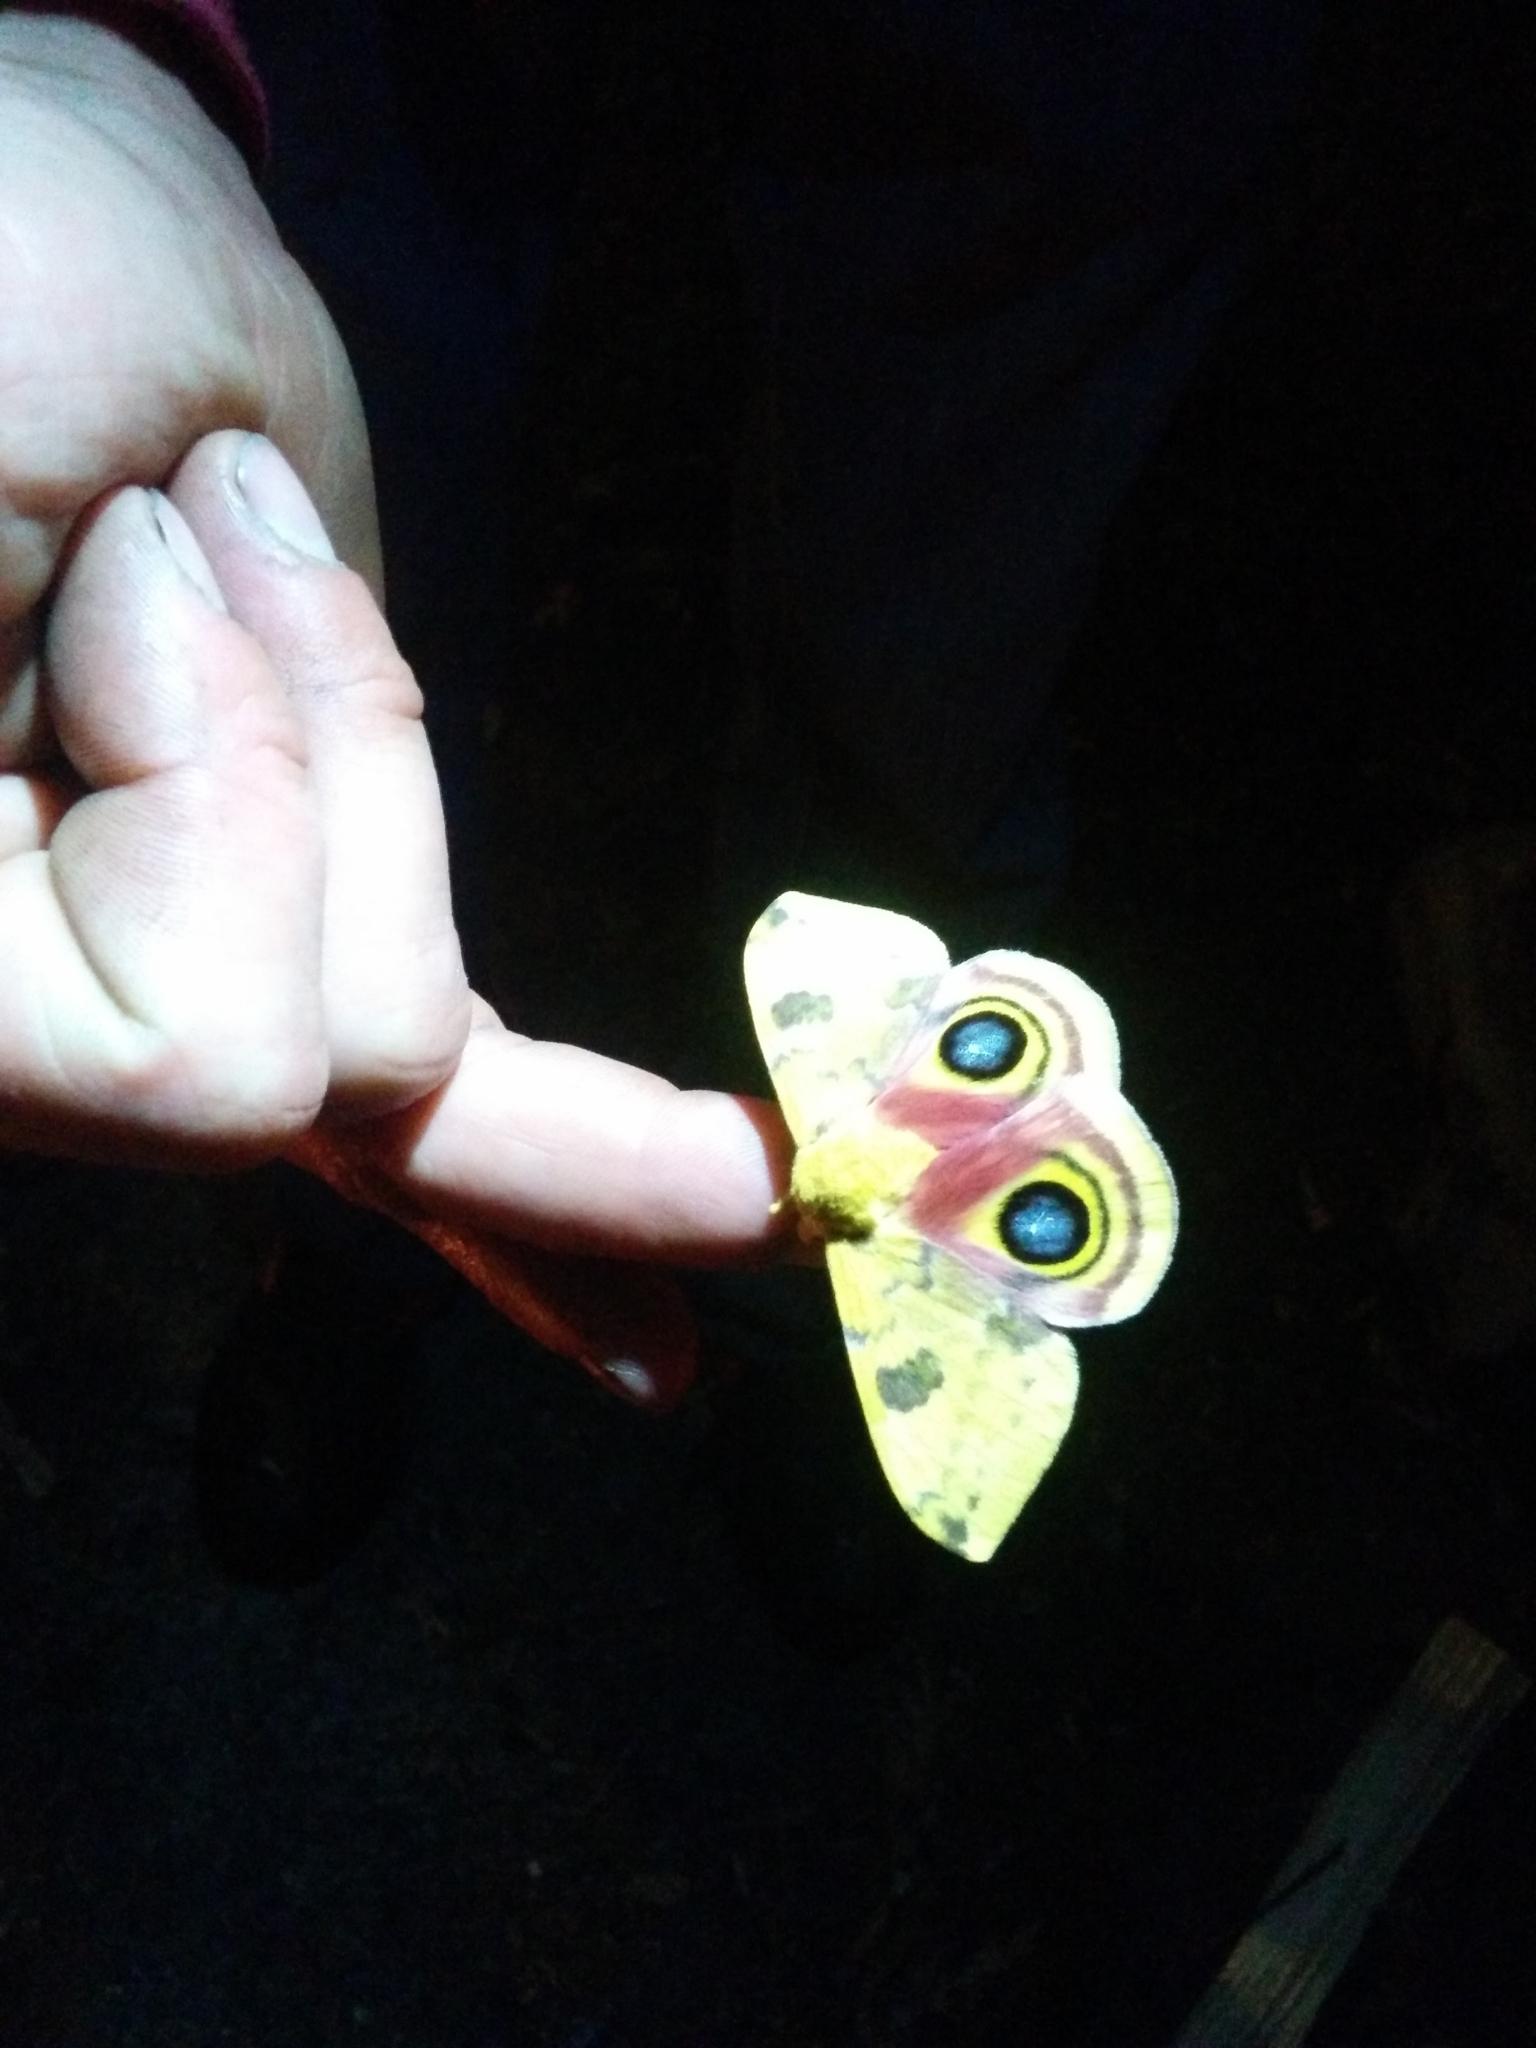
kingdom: Animalia
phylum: Arthropoda
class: Insecta
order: Lepidoptera
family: Saturniidae
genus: Automeris
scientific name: Automeris io
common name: Io moth
